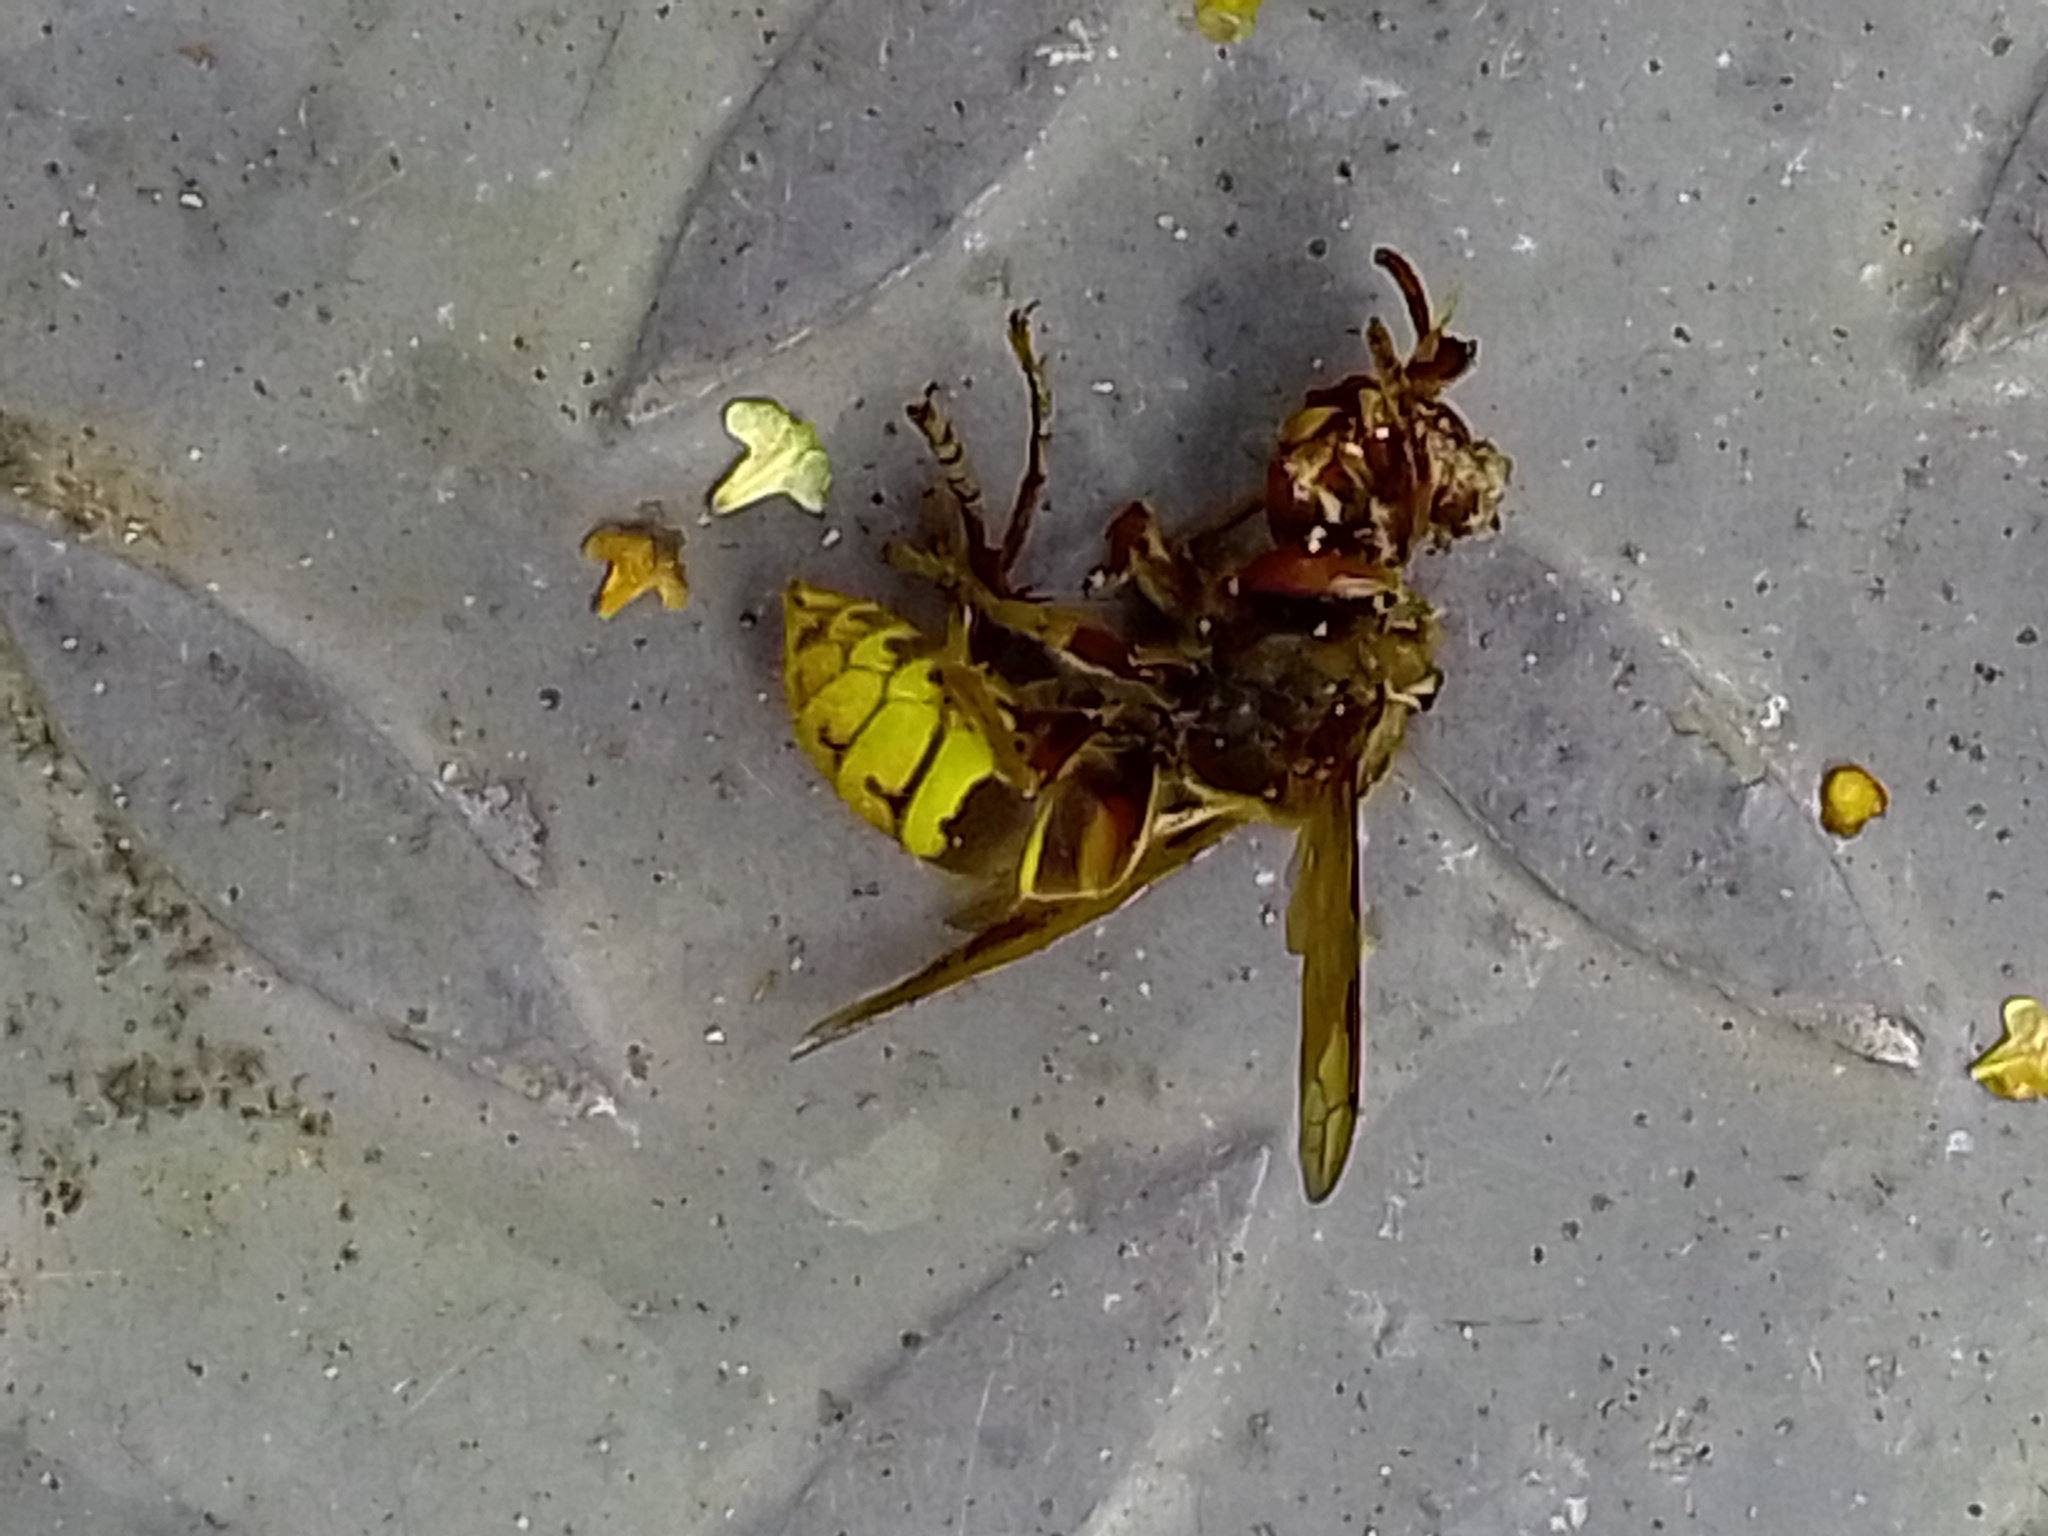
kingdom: Animalia
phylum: Arthropoda
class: Insecta
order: Hymenoptera
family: Vespidae
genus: Vespa
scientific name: Vespa crabro
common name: Hornet
